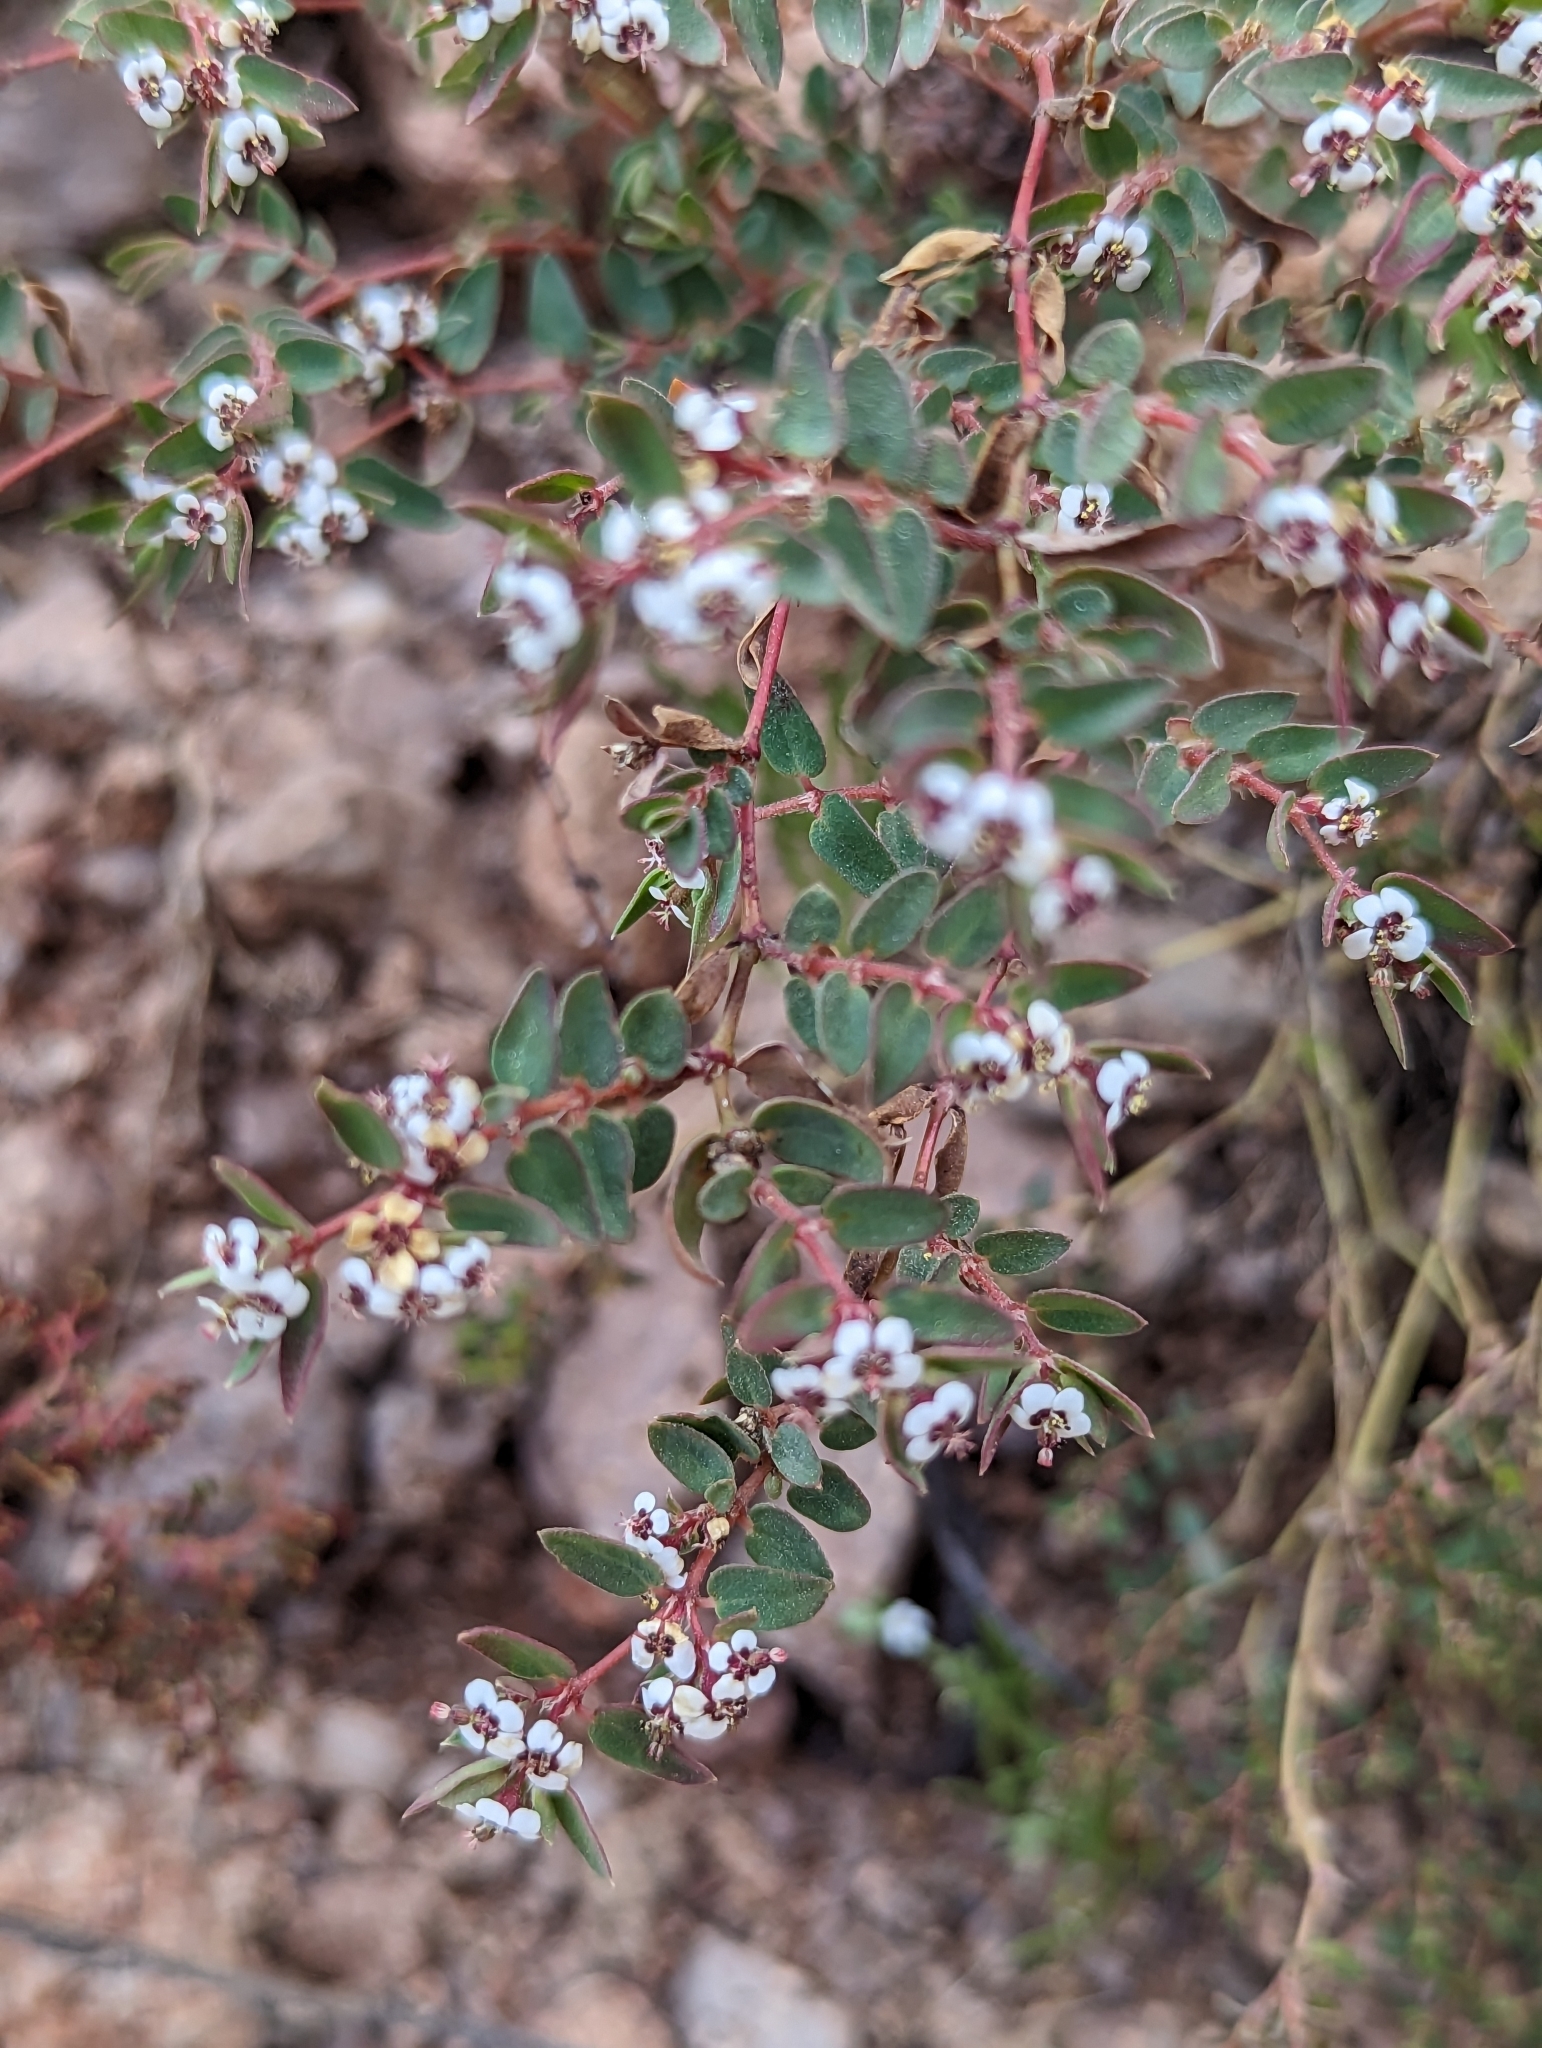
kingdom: Plantae
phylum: Tracheophyta
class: Magnoliopsida
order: Malpighiales
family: Euphorbiaceae
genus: Euphorbia
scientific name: Euphorbia capitellata
